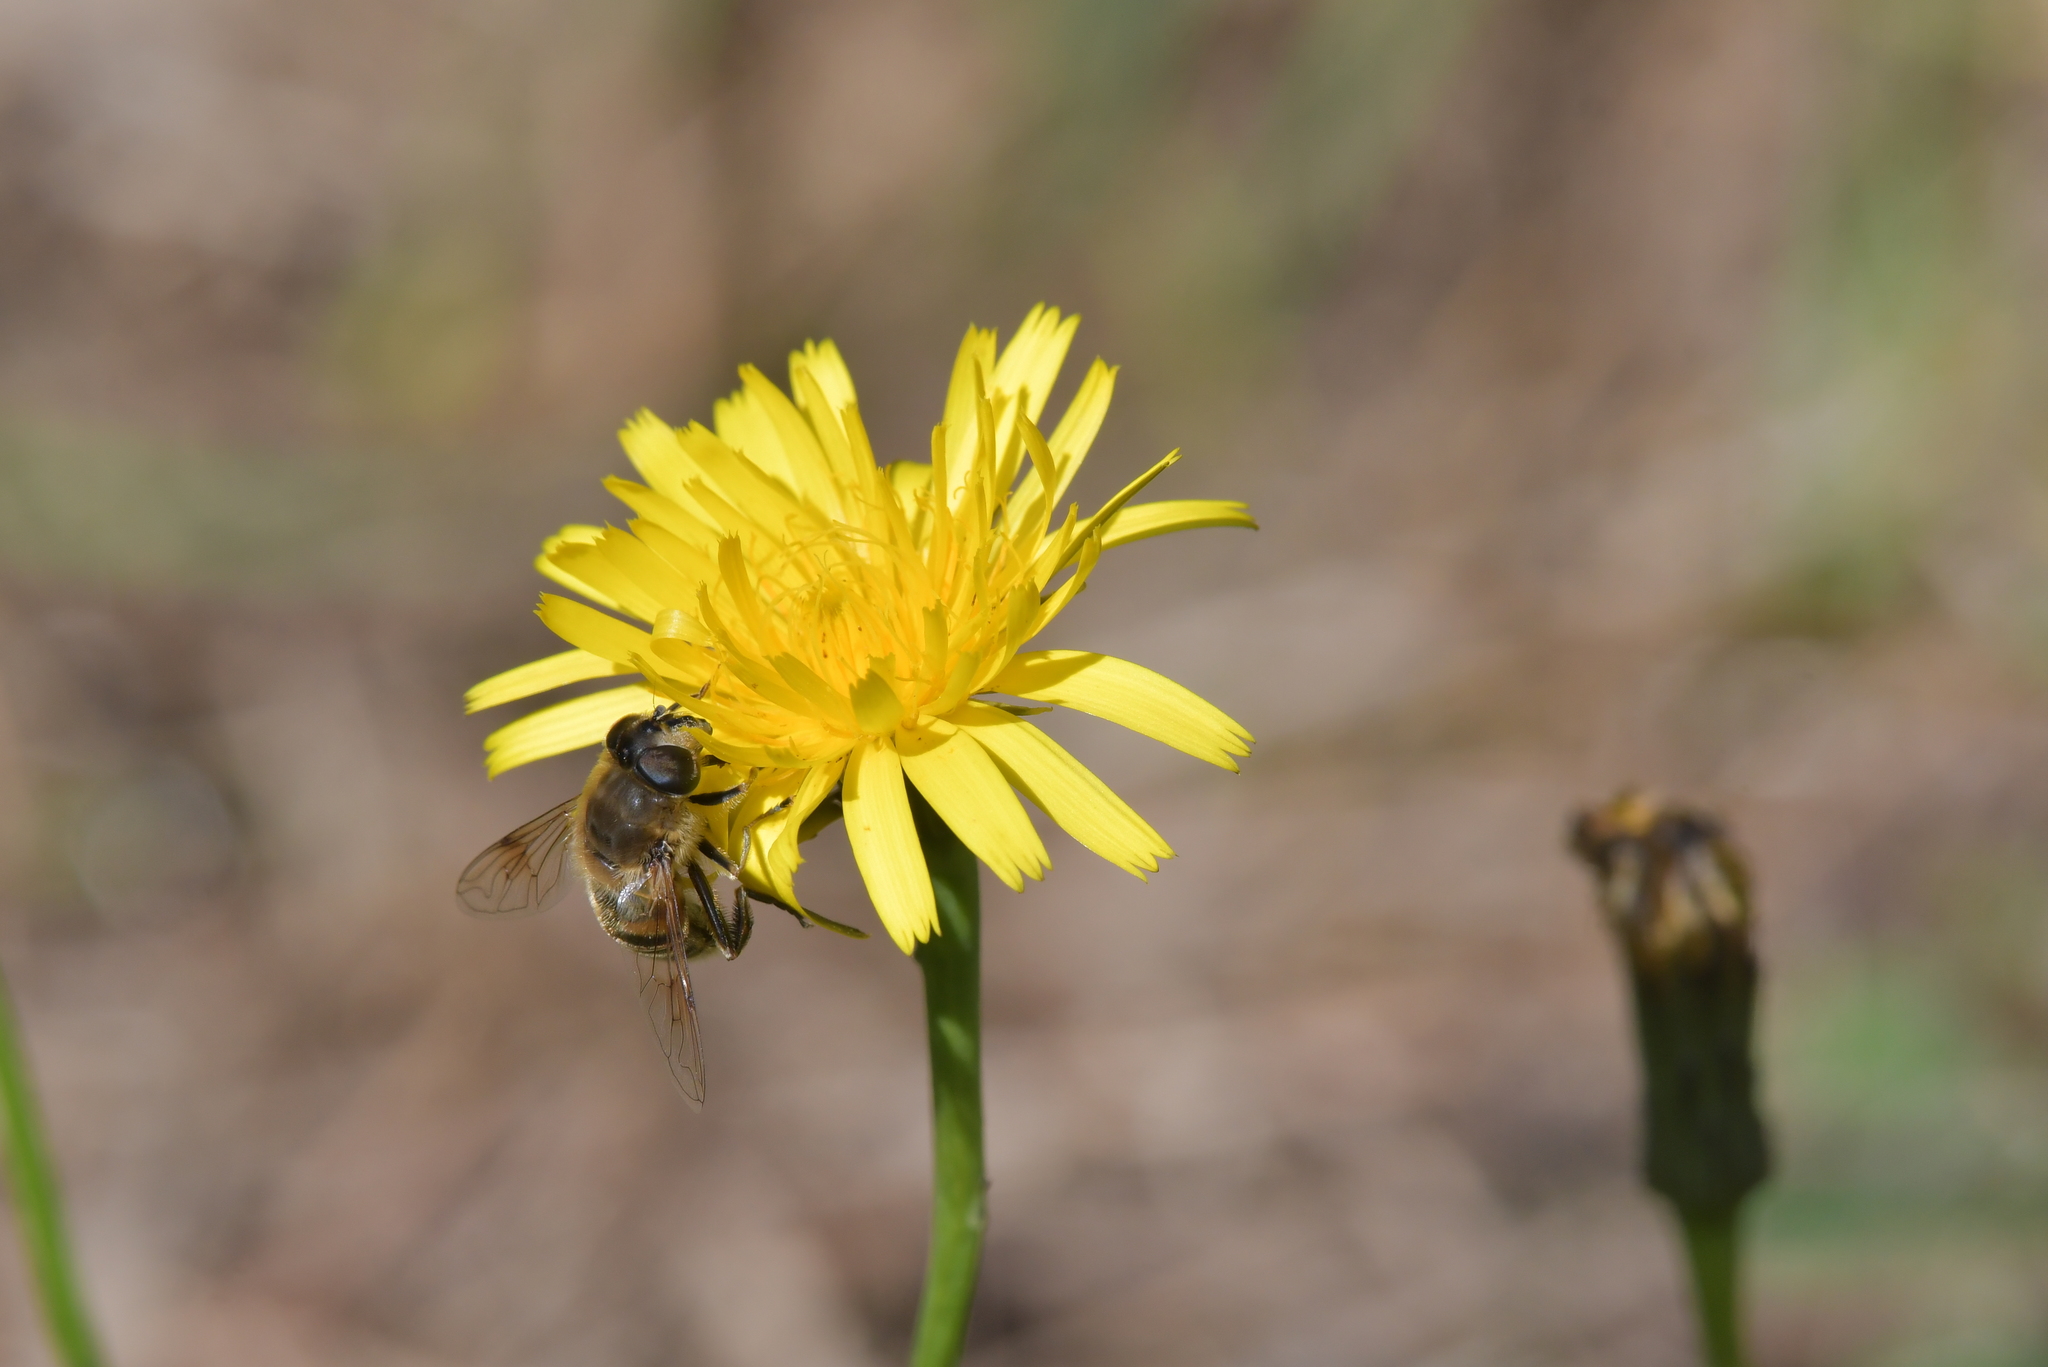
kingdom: Animalia
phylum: Arthropoda
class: Insecta
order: Diptera
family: Syrphidae
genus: Eristalis
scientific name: Eristalis tenax
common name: Drone fly
